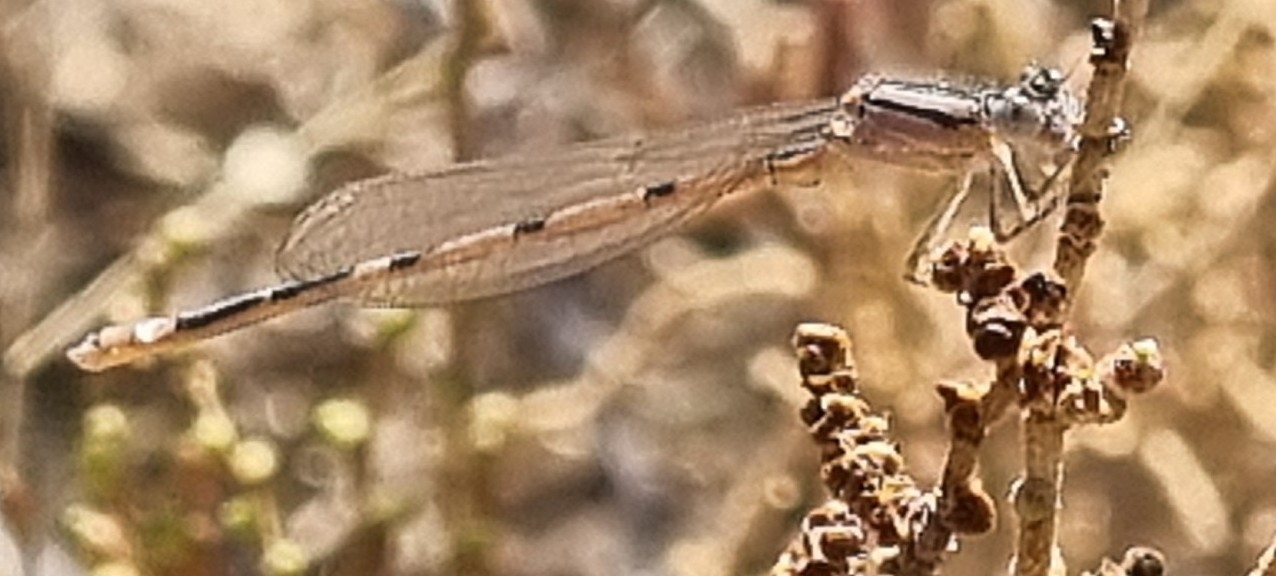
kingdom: Animalia
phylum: Arthropoda
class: Insecta
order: Odonata
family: Coenagrionidae
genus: Enallagma
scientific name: Enallagma civile
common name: Damselfly
